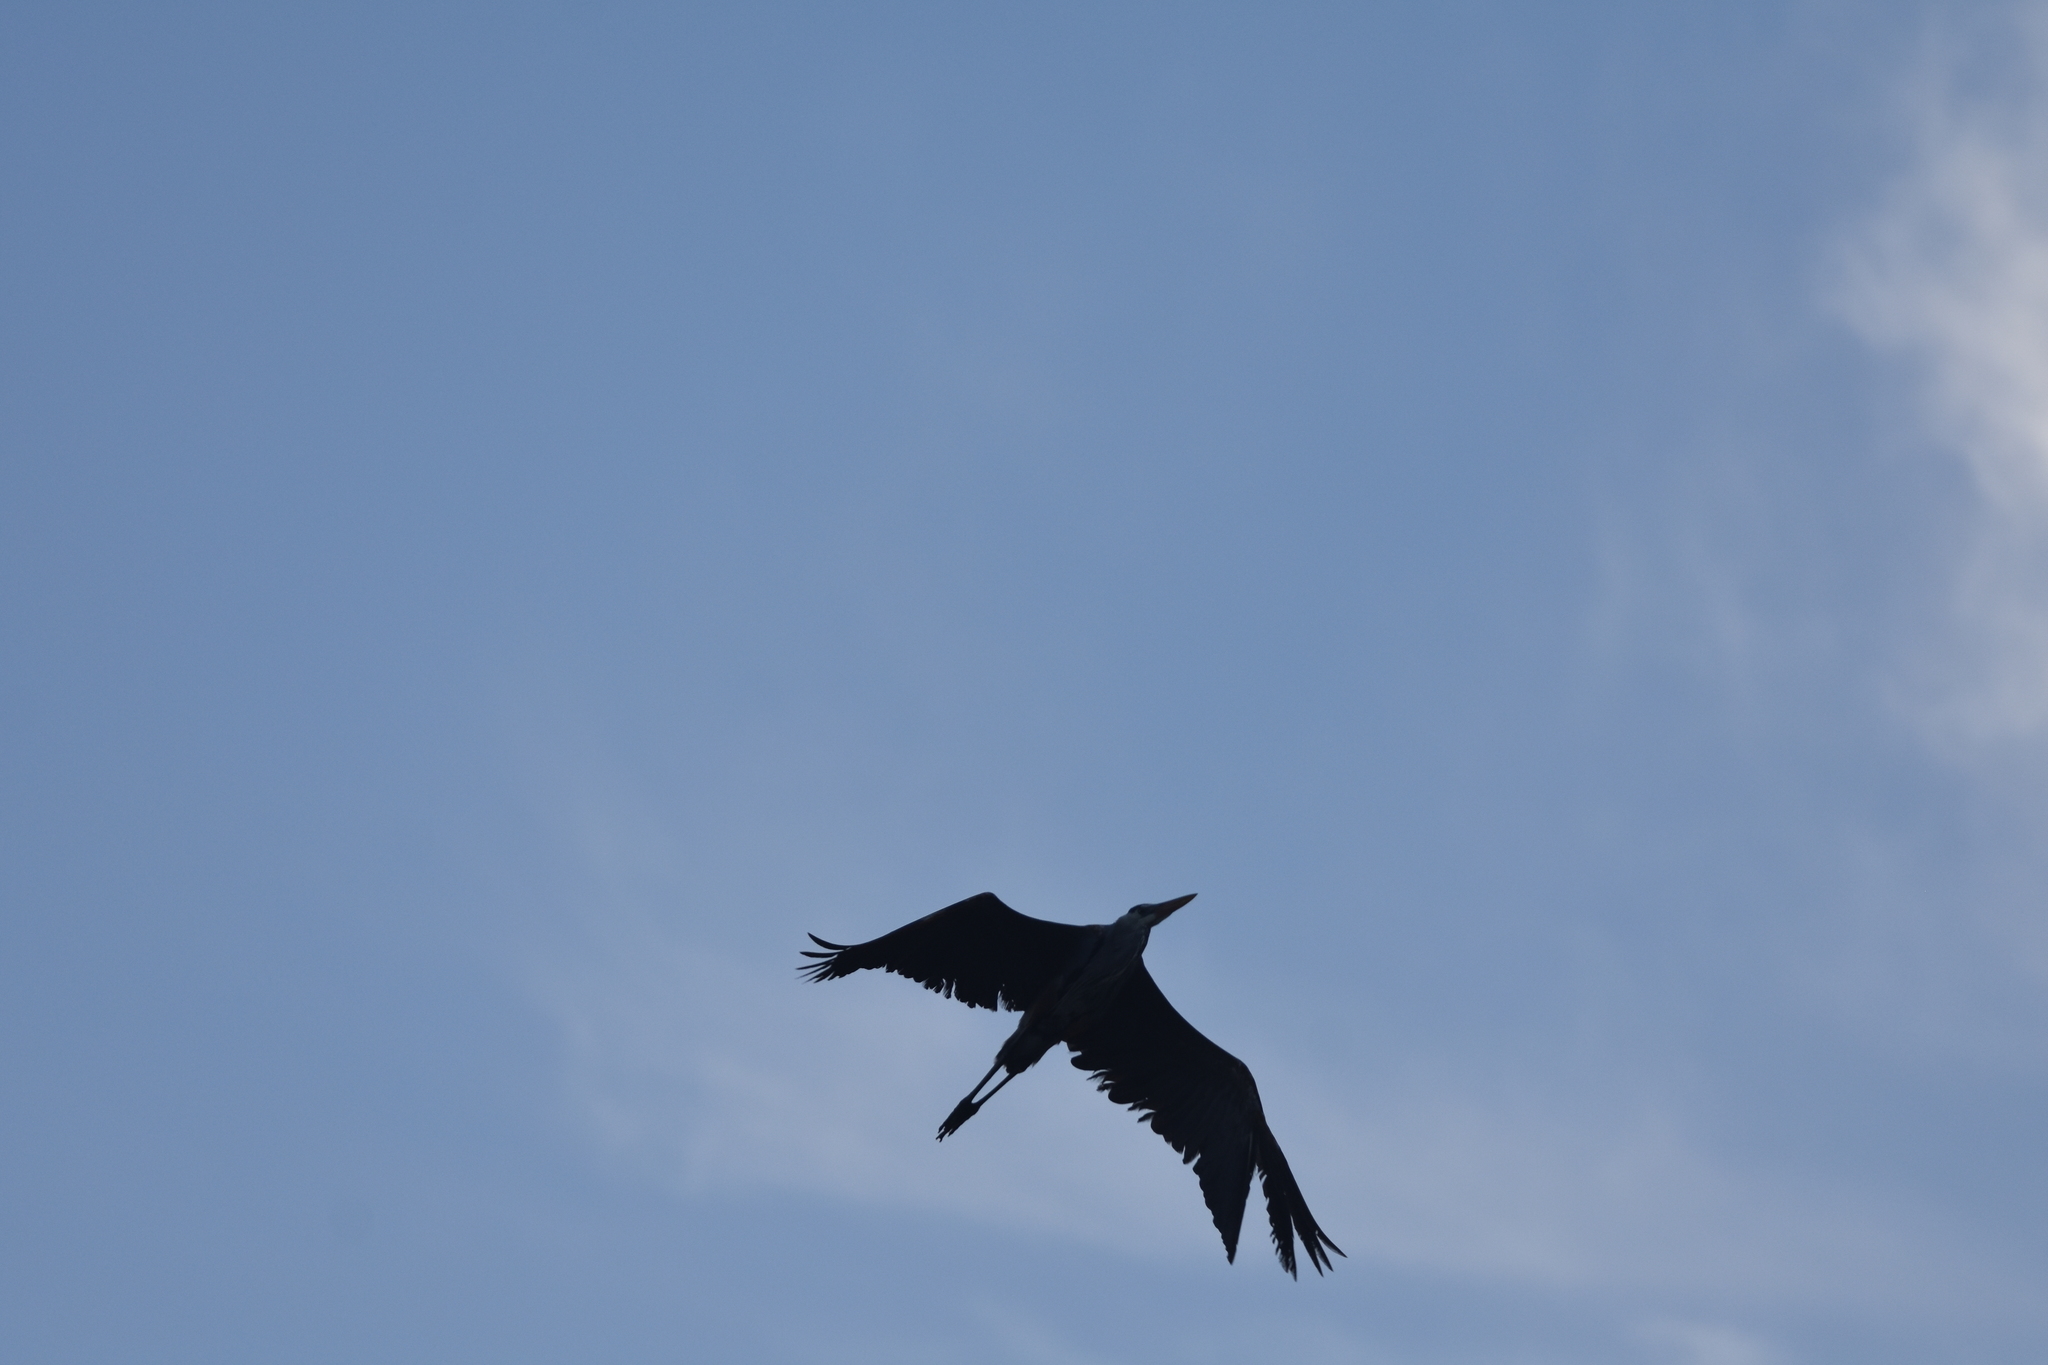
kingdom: Animalia
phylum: Chordata
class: Aves
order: Pelecaniformes
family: Ardeidae
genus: Ardea
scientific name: Ardea herodias
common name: Great blue heron
